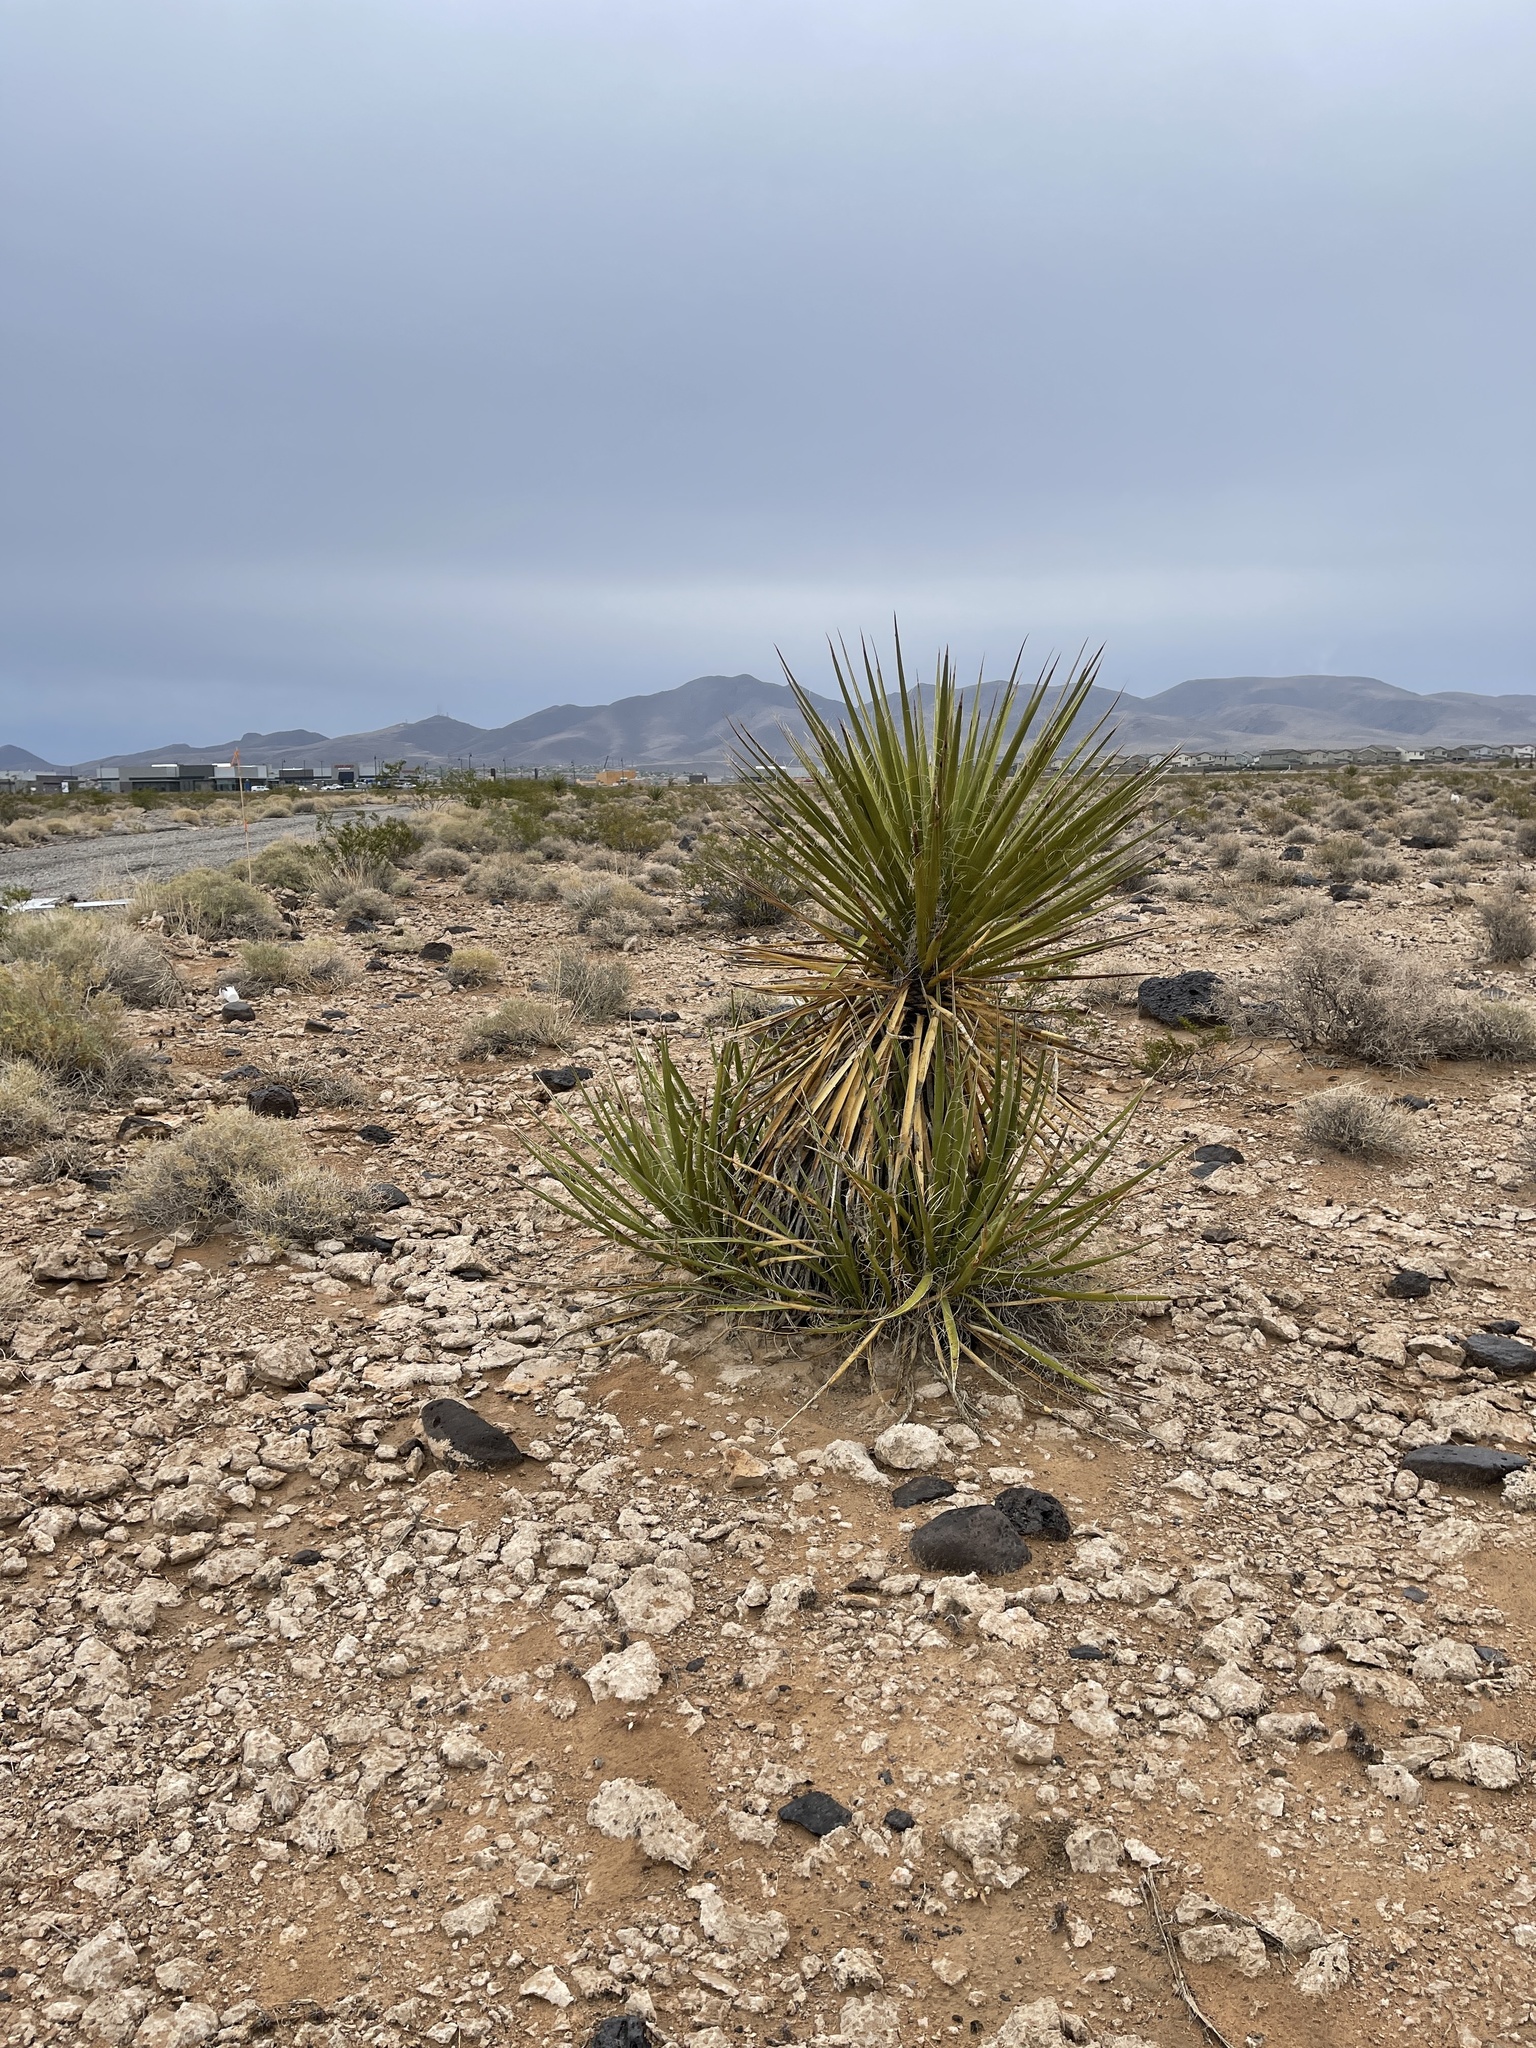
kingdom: Plantae
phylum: Tracheophyta
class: Liliopsida
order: Asparagales
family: Asparagaceae
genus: Yucca
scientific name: Yucca schidigera
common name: Mojave yucca
